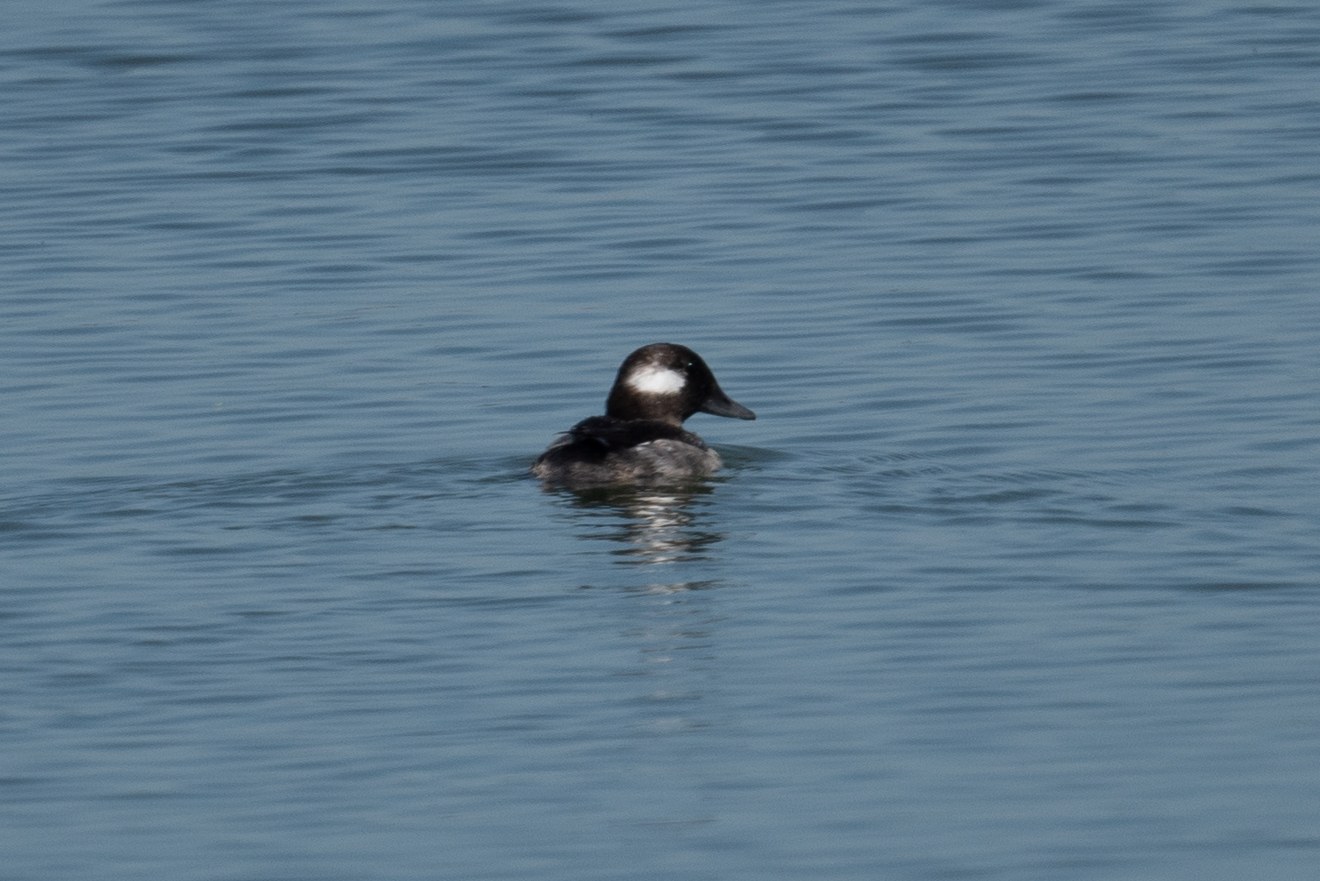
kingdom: Animalia
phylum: Chordata
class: Aves
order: Anseriformes
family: Anatidae
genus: Bucephala
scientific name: Bucephala albeola
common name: Bufflehead
